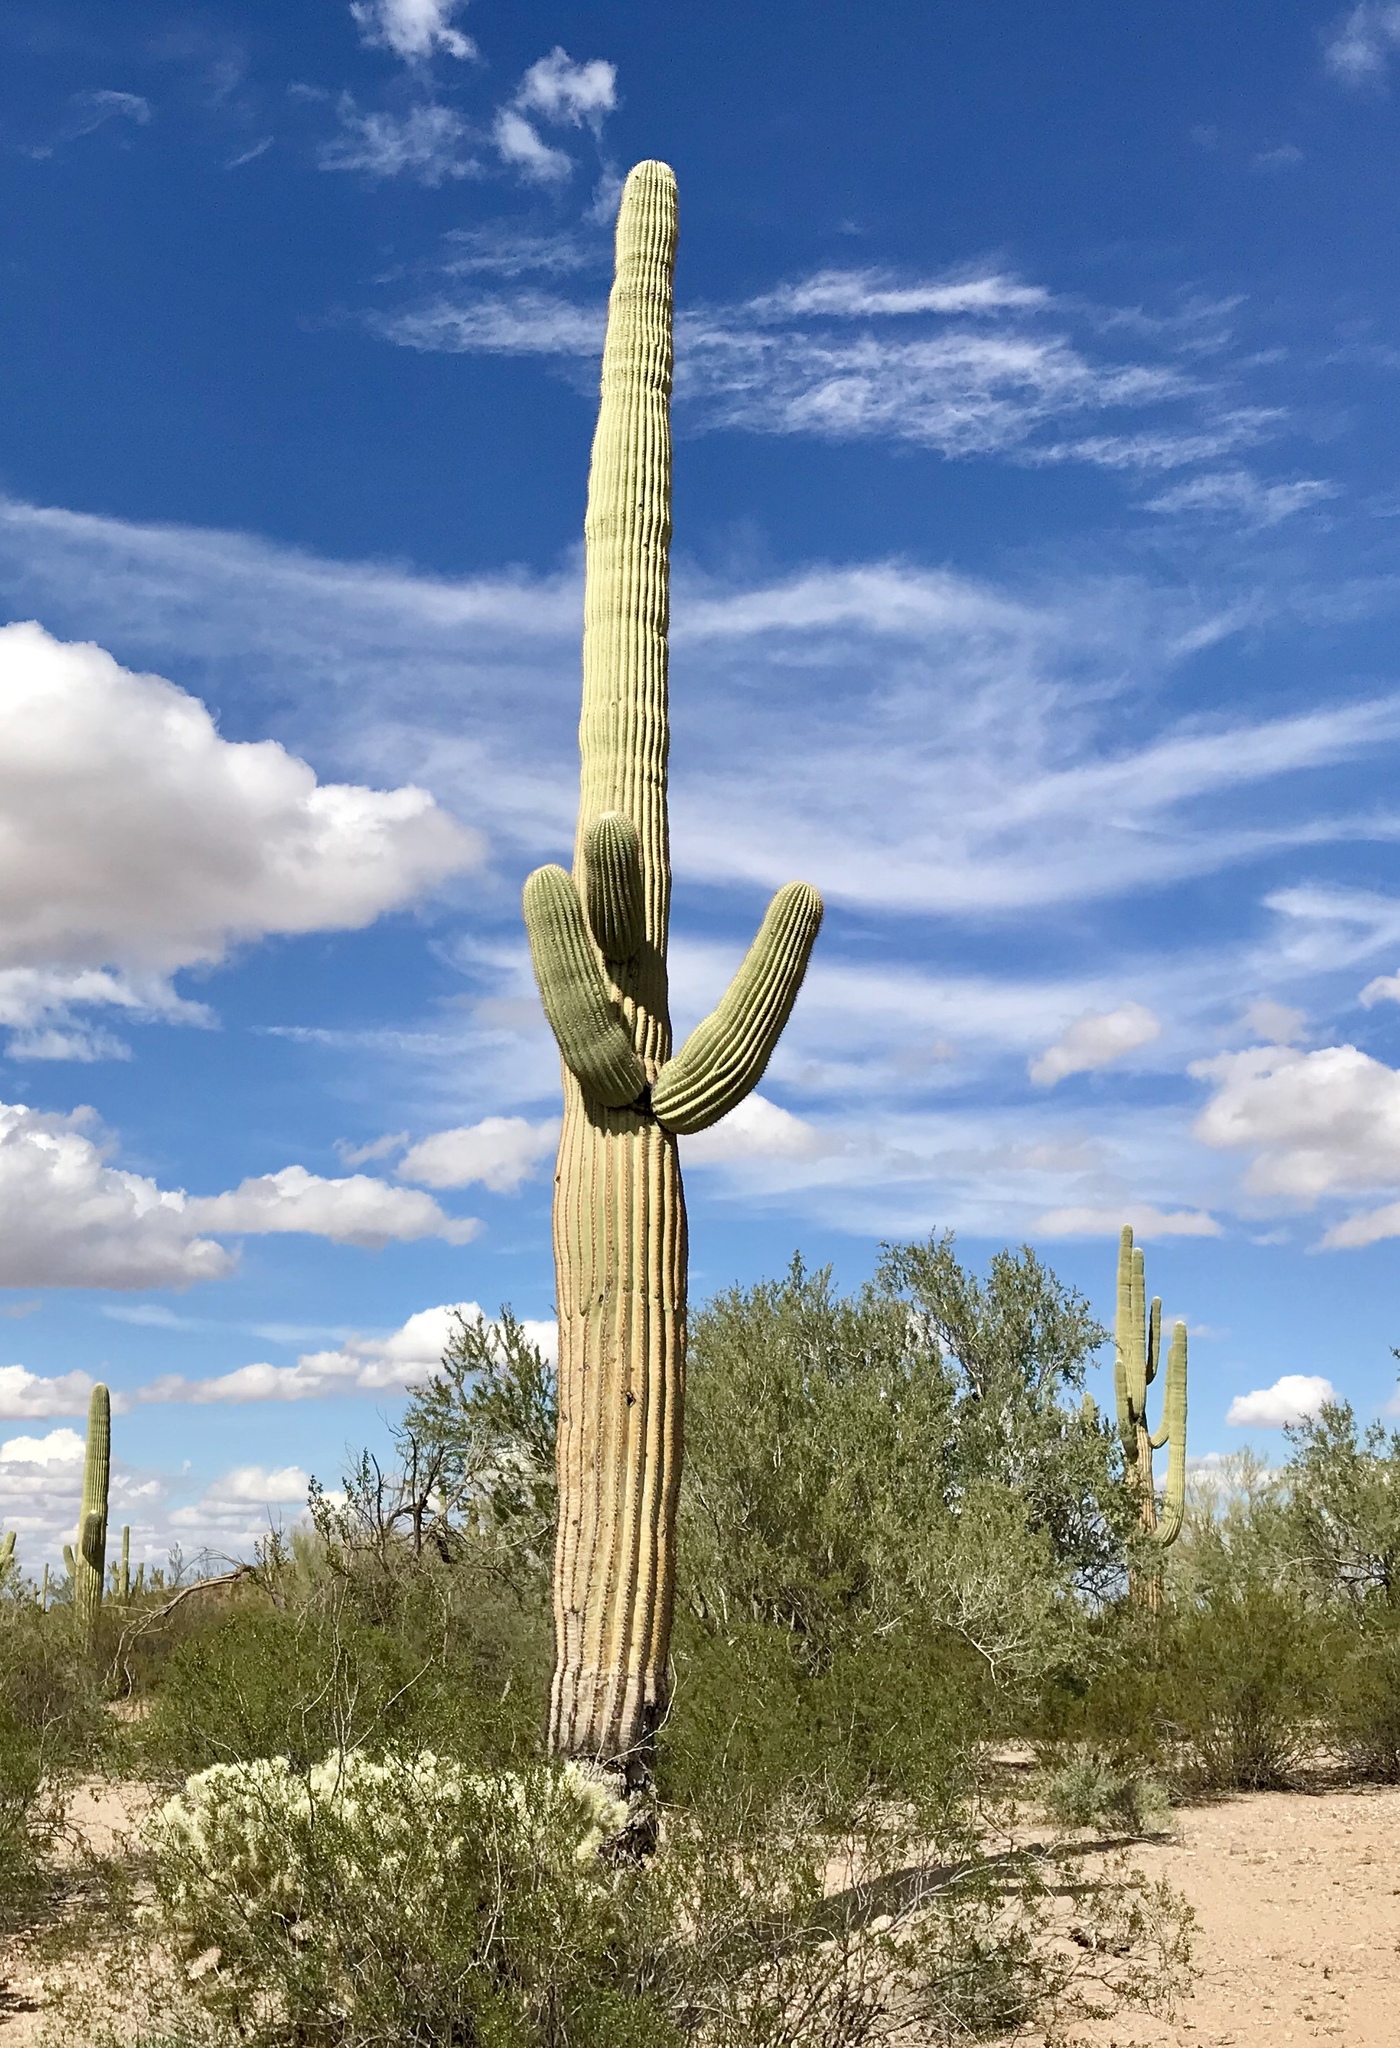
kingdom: Plantae
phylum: Tracheophyta
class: Magnoliopsida
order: Caryophyllales
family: Cactaceae
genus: Carnegiea
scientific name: Carnegiea gigantea
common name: Saguaro
